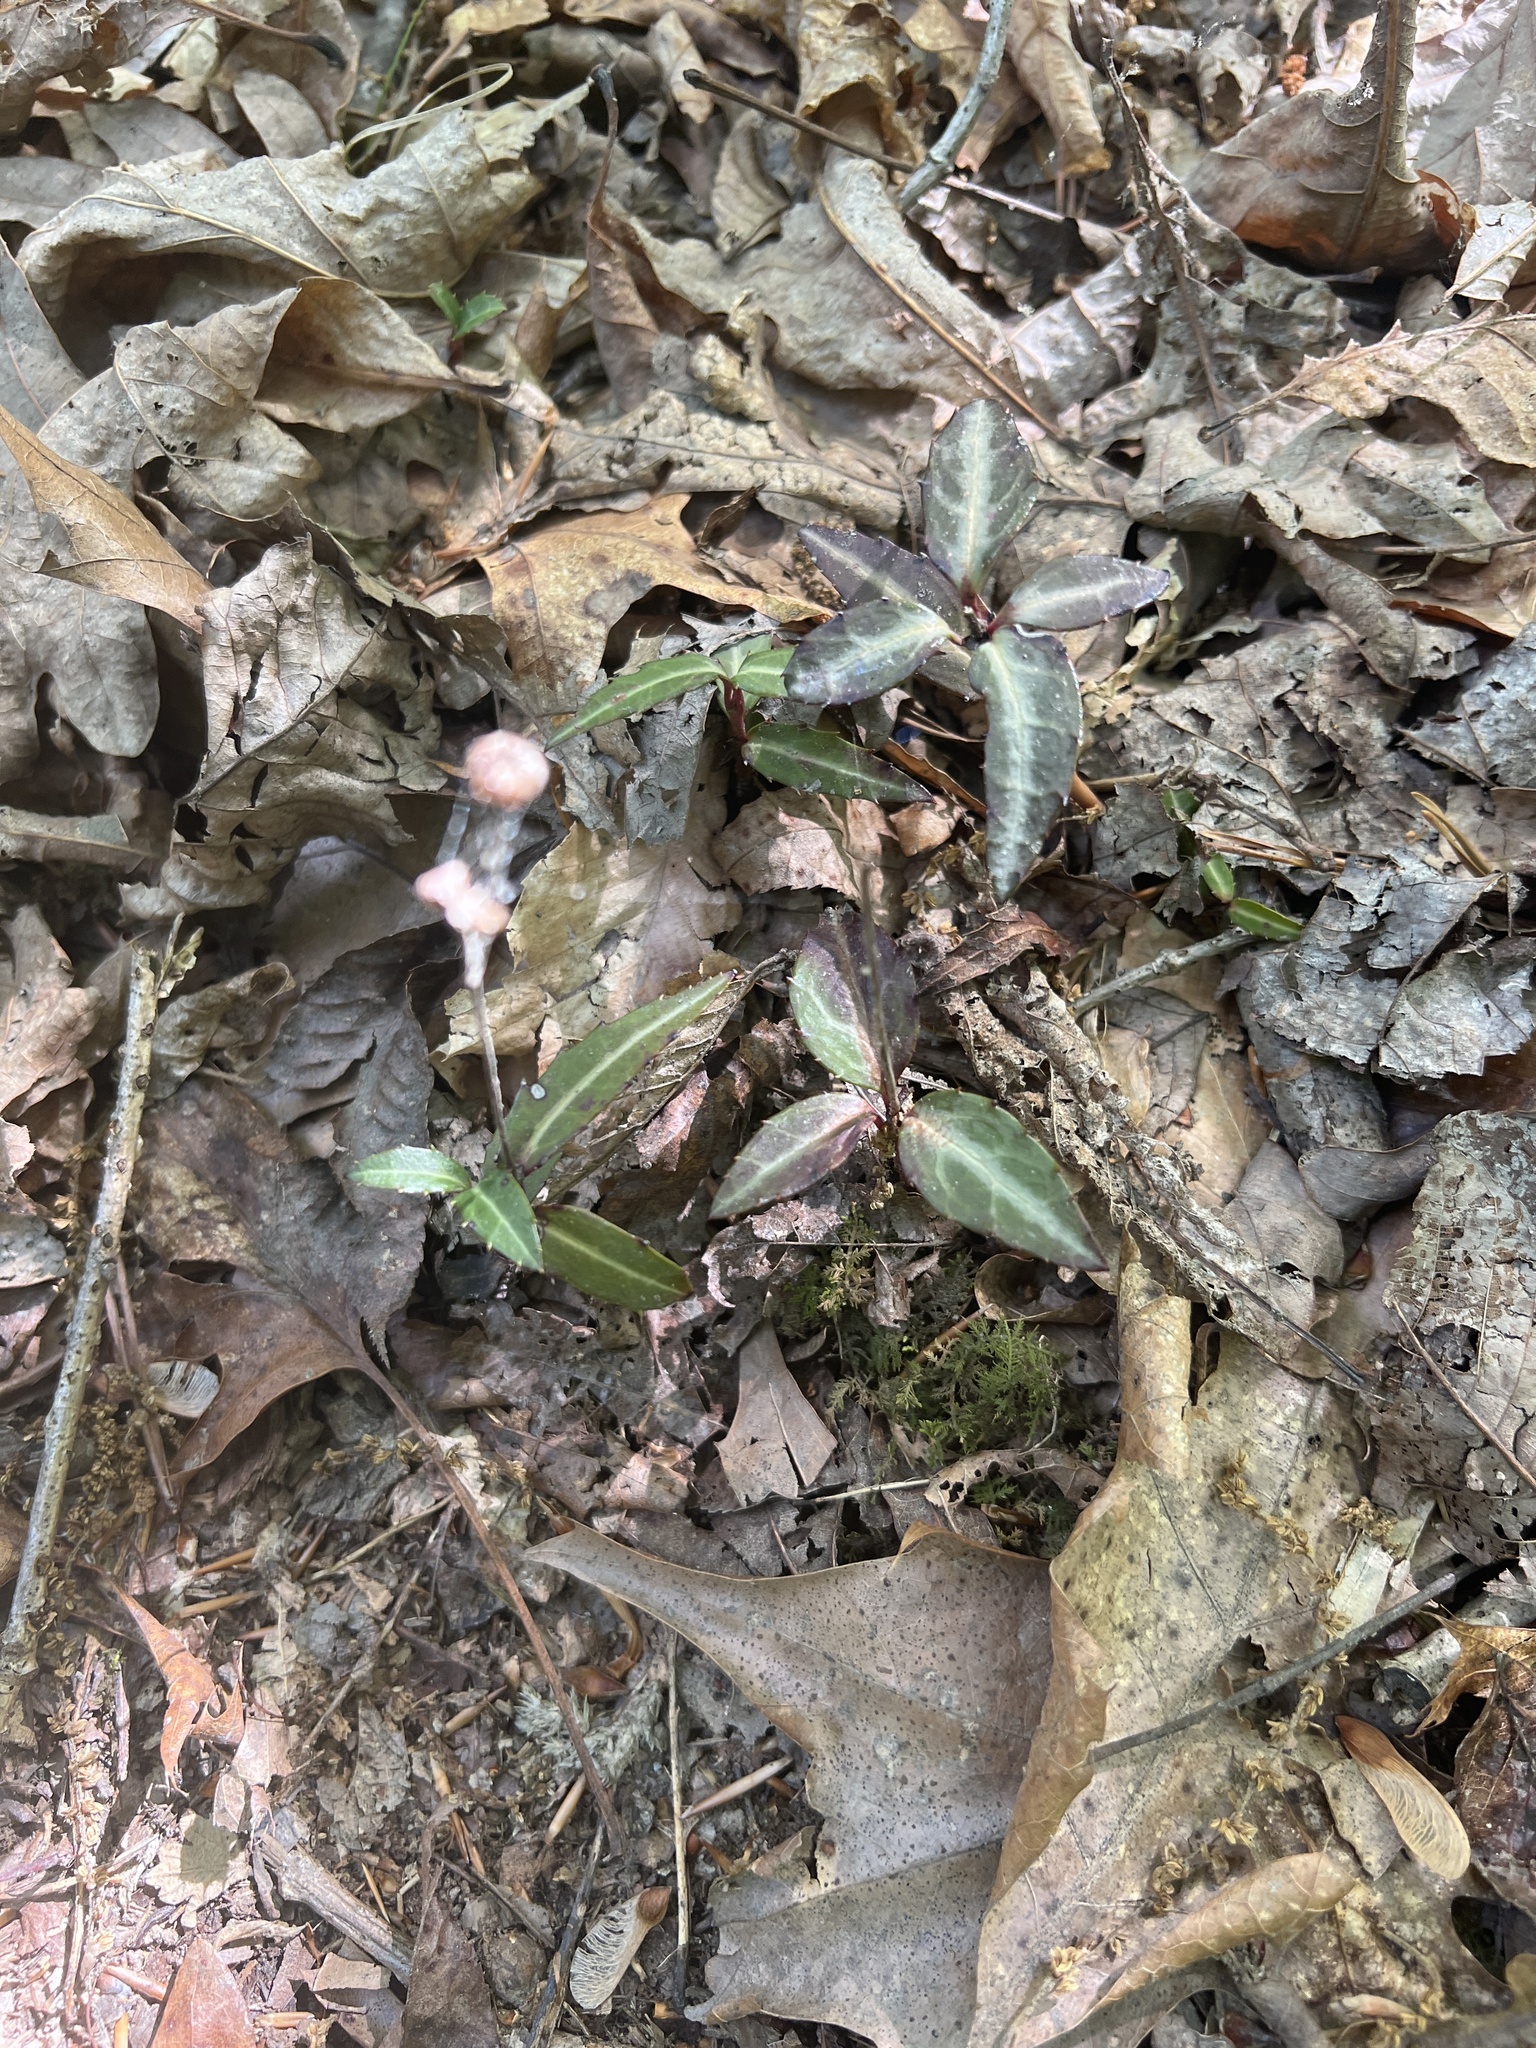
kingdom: Plantae
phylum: Tracheophyta
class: Magnoliopsida
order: Ericales
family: Ericaceae
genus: Chimaphila
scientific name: Chimaphila maculata
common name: Spotted pipsissewa
